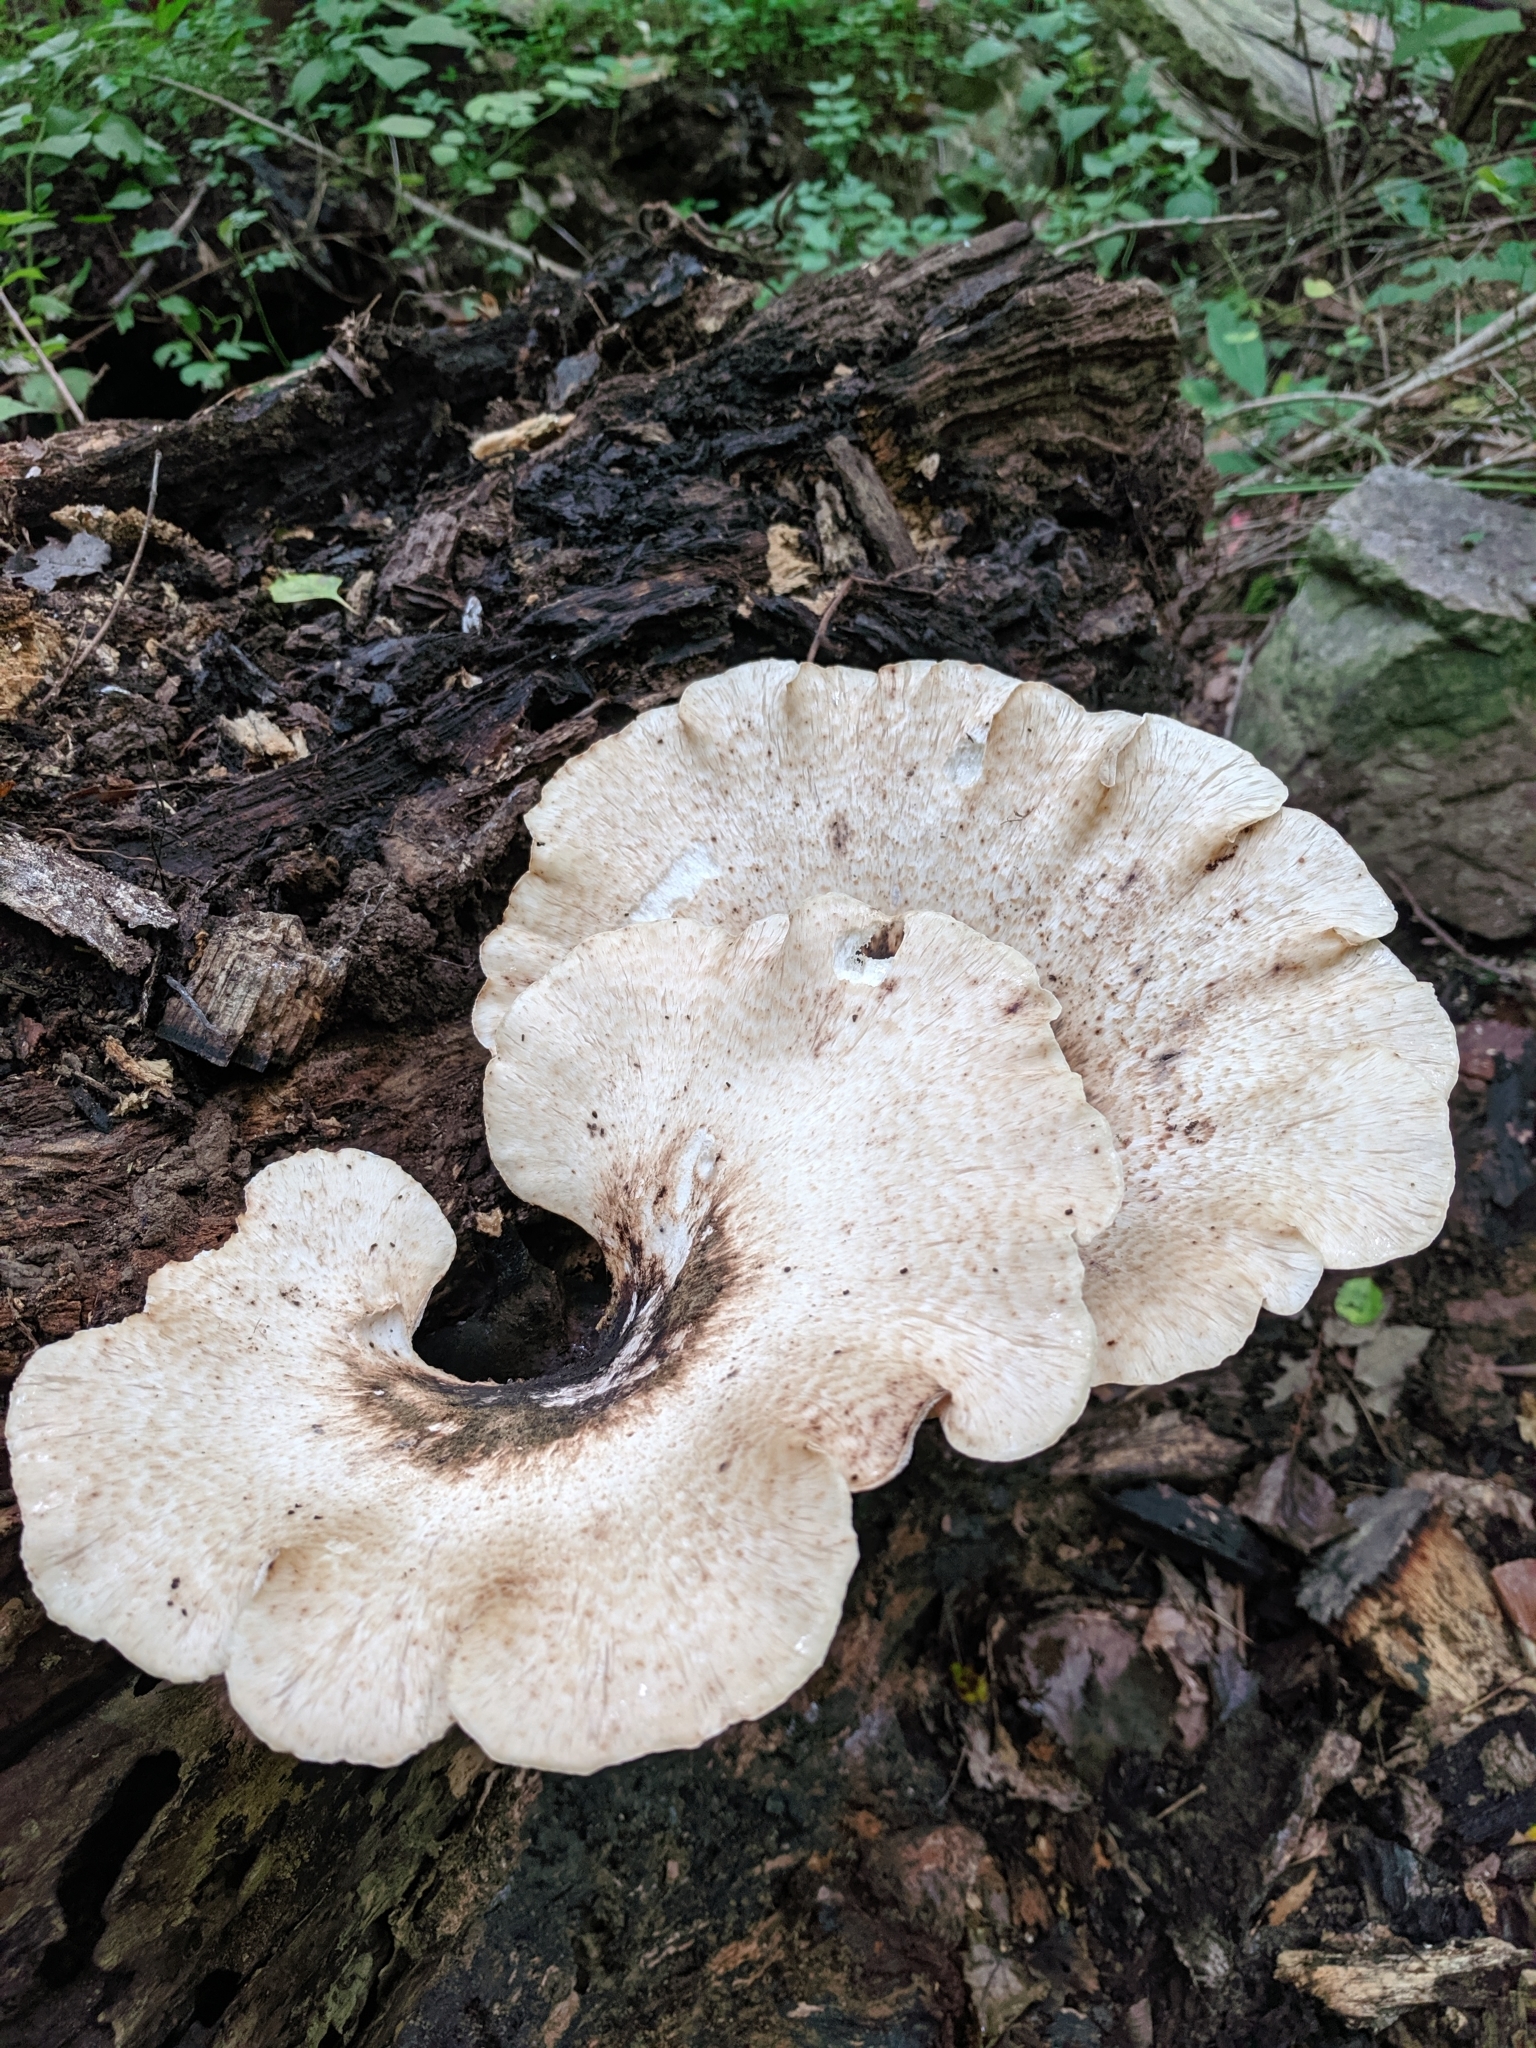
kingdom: Fungi
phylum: Basidiomycota
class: Agaricomycetes
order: Polyporales
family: Polyporaceae
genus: Cerioporus
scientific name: Cerioporus squamosus
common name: Dryad's saddle
